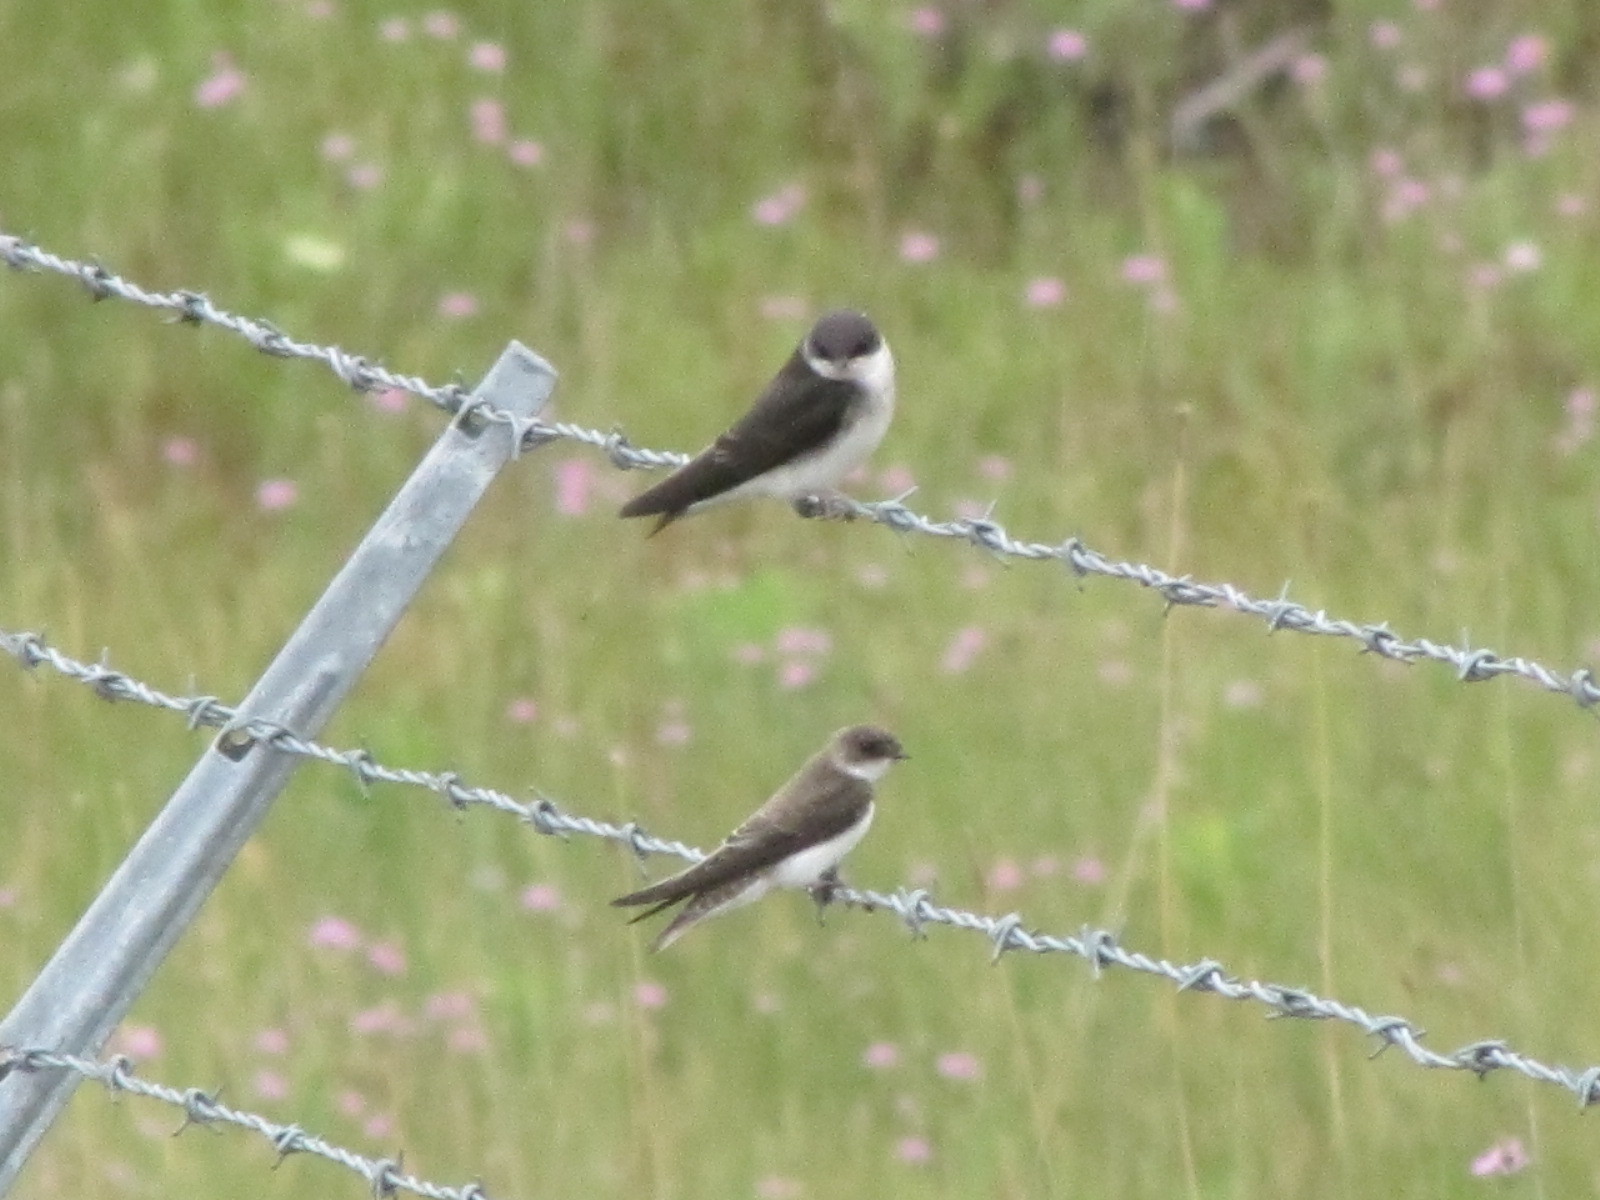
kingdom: Animalia
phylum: Chordata
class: Aves
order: Passeriformes
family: Hirundinidae
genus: Riparia
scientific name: Riparia riparia
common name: Sand martin
